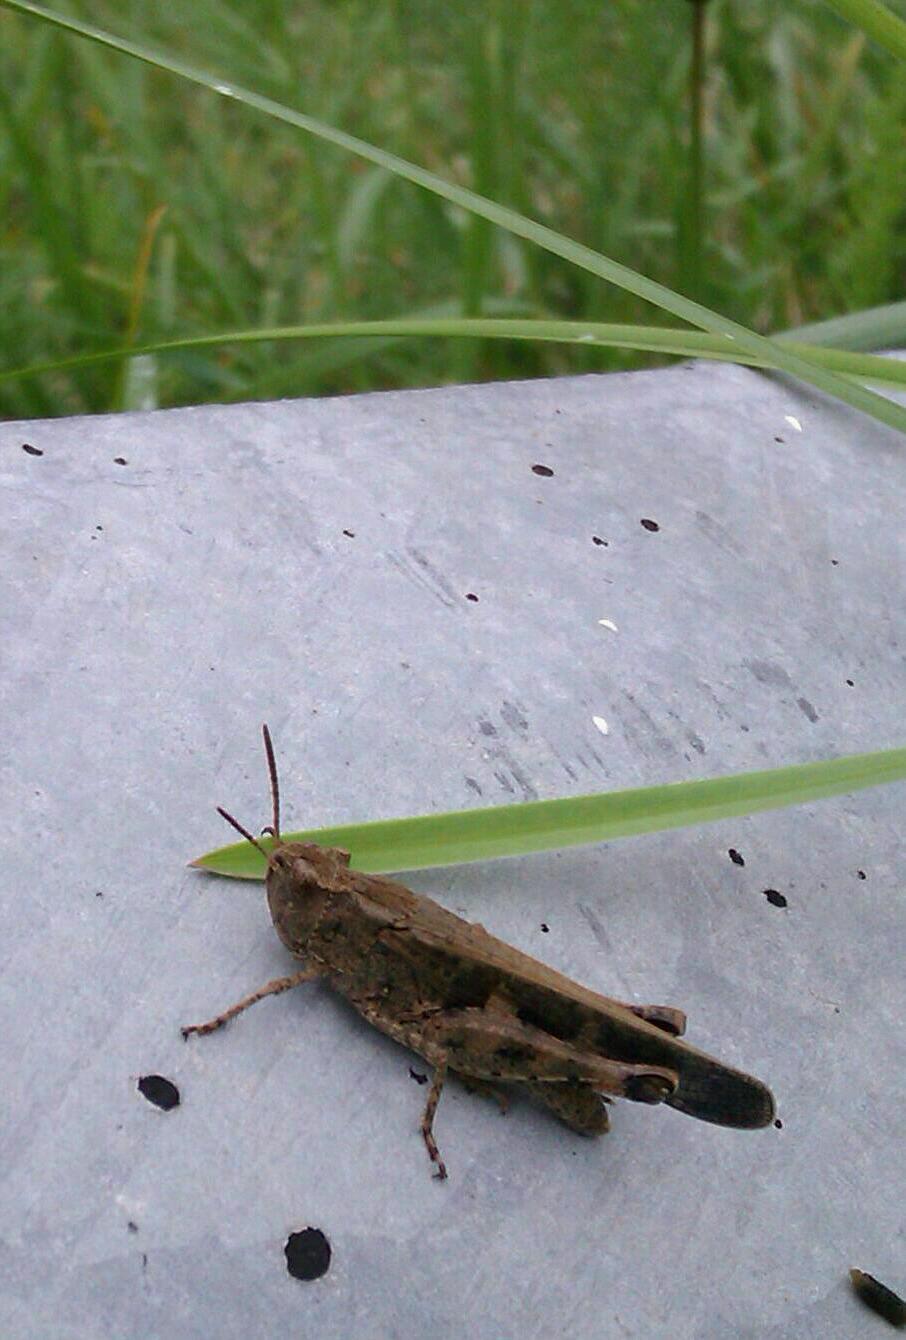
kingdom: Animalia
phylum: Arthropoda
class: Insecta
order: Orthoptera
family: Acrididae
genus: Aiolopus
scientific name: Aiolopus strepens
